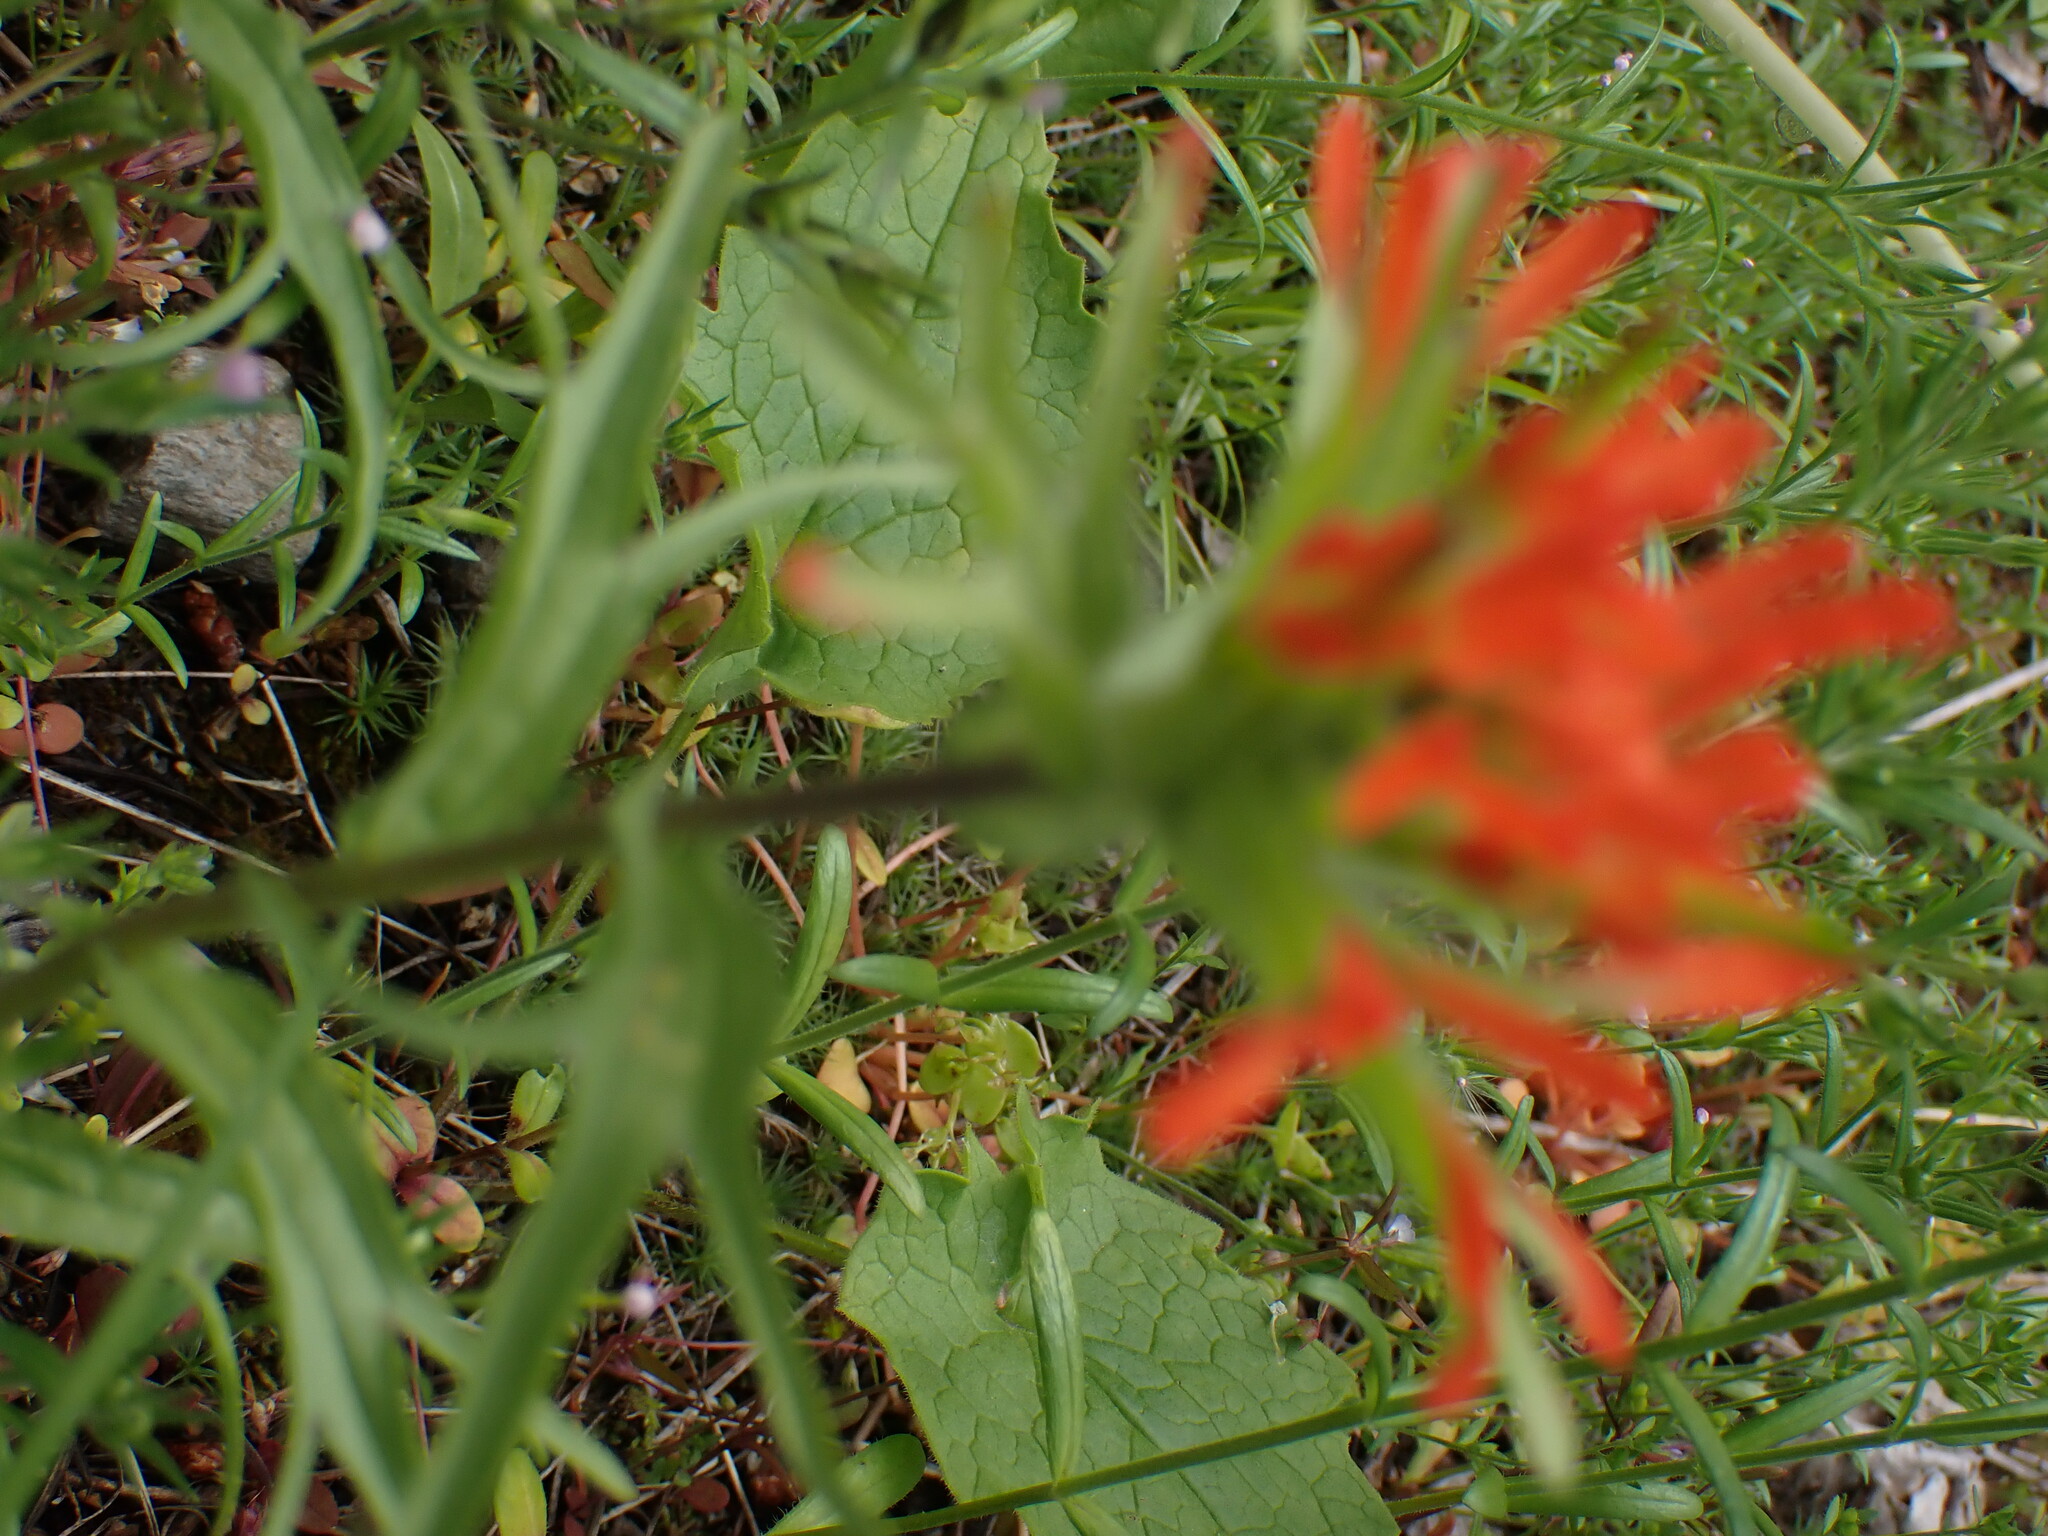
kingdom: Plantae
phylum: Tracheophyta
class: Magnoliopsida
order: Lamiales
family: Orobanchaceae
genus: Castilleja
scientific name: Castilleja hispida
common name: Bristly paintbrush
